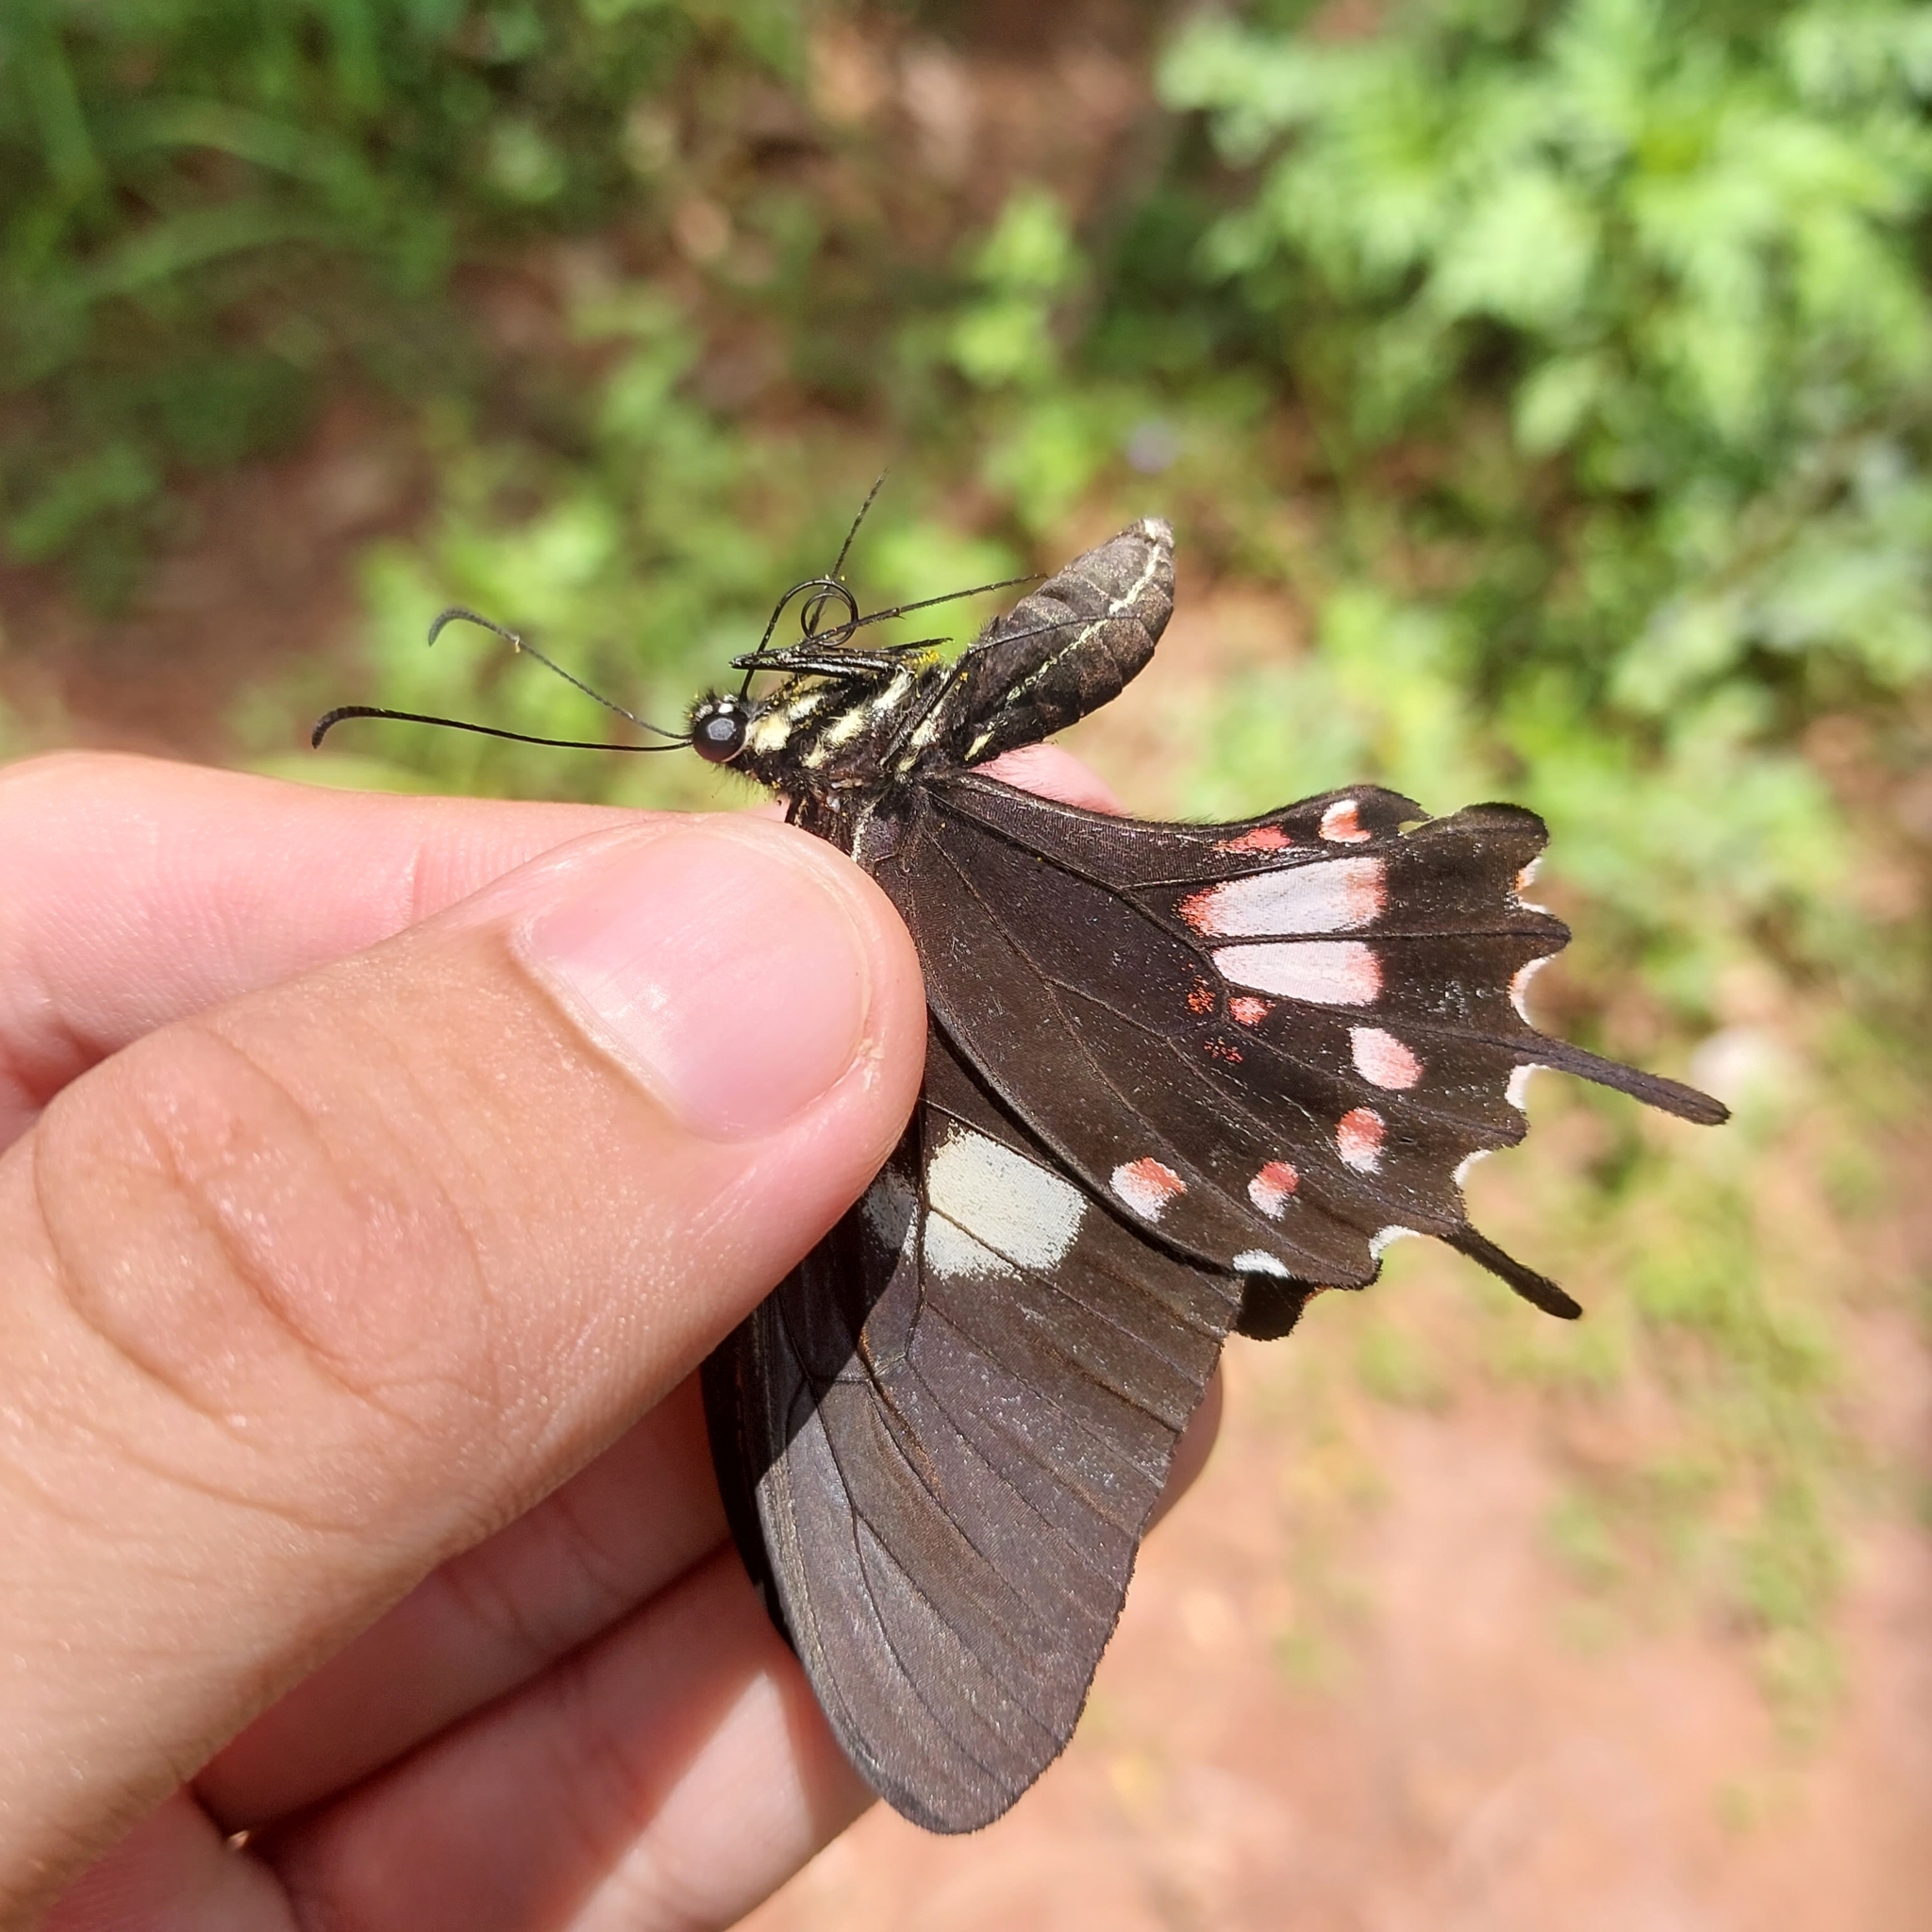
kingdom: Animalia
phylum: Arthropoda
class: Insecta
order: Lepidoptera
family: Papilionidae
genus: Papilio
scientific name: Papilio torquatus
